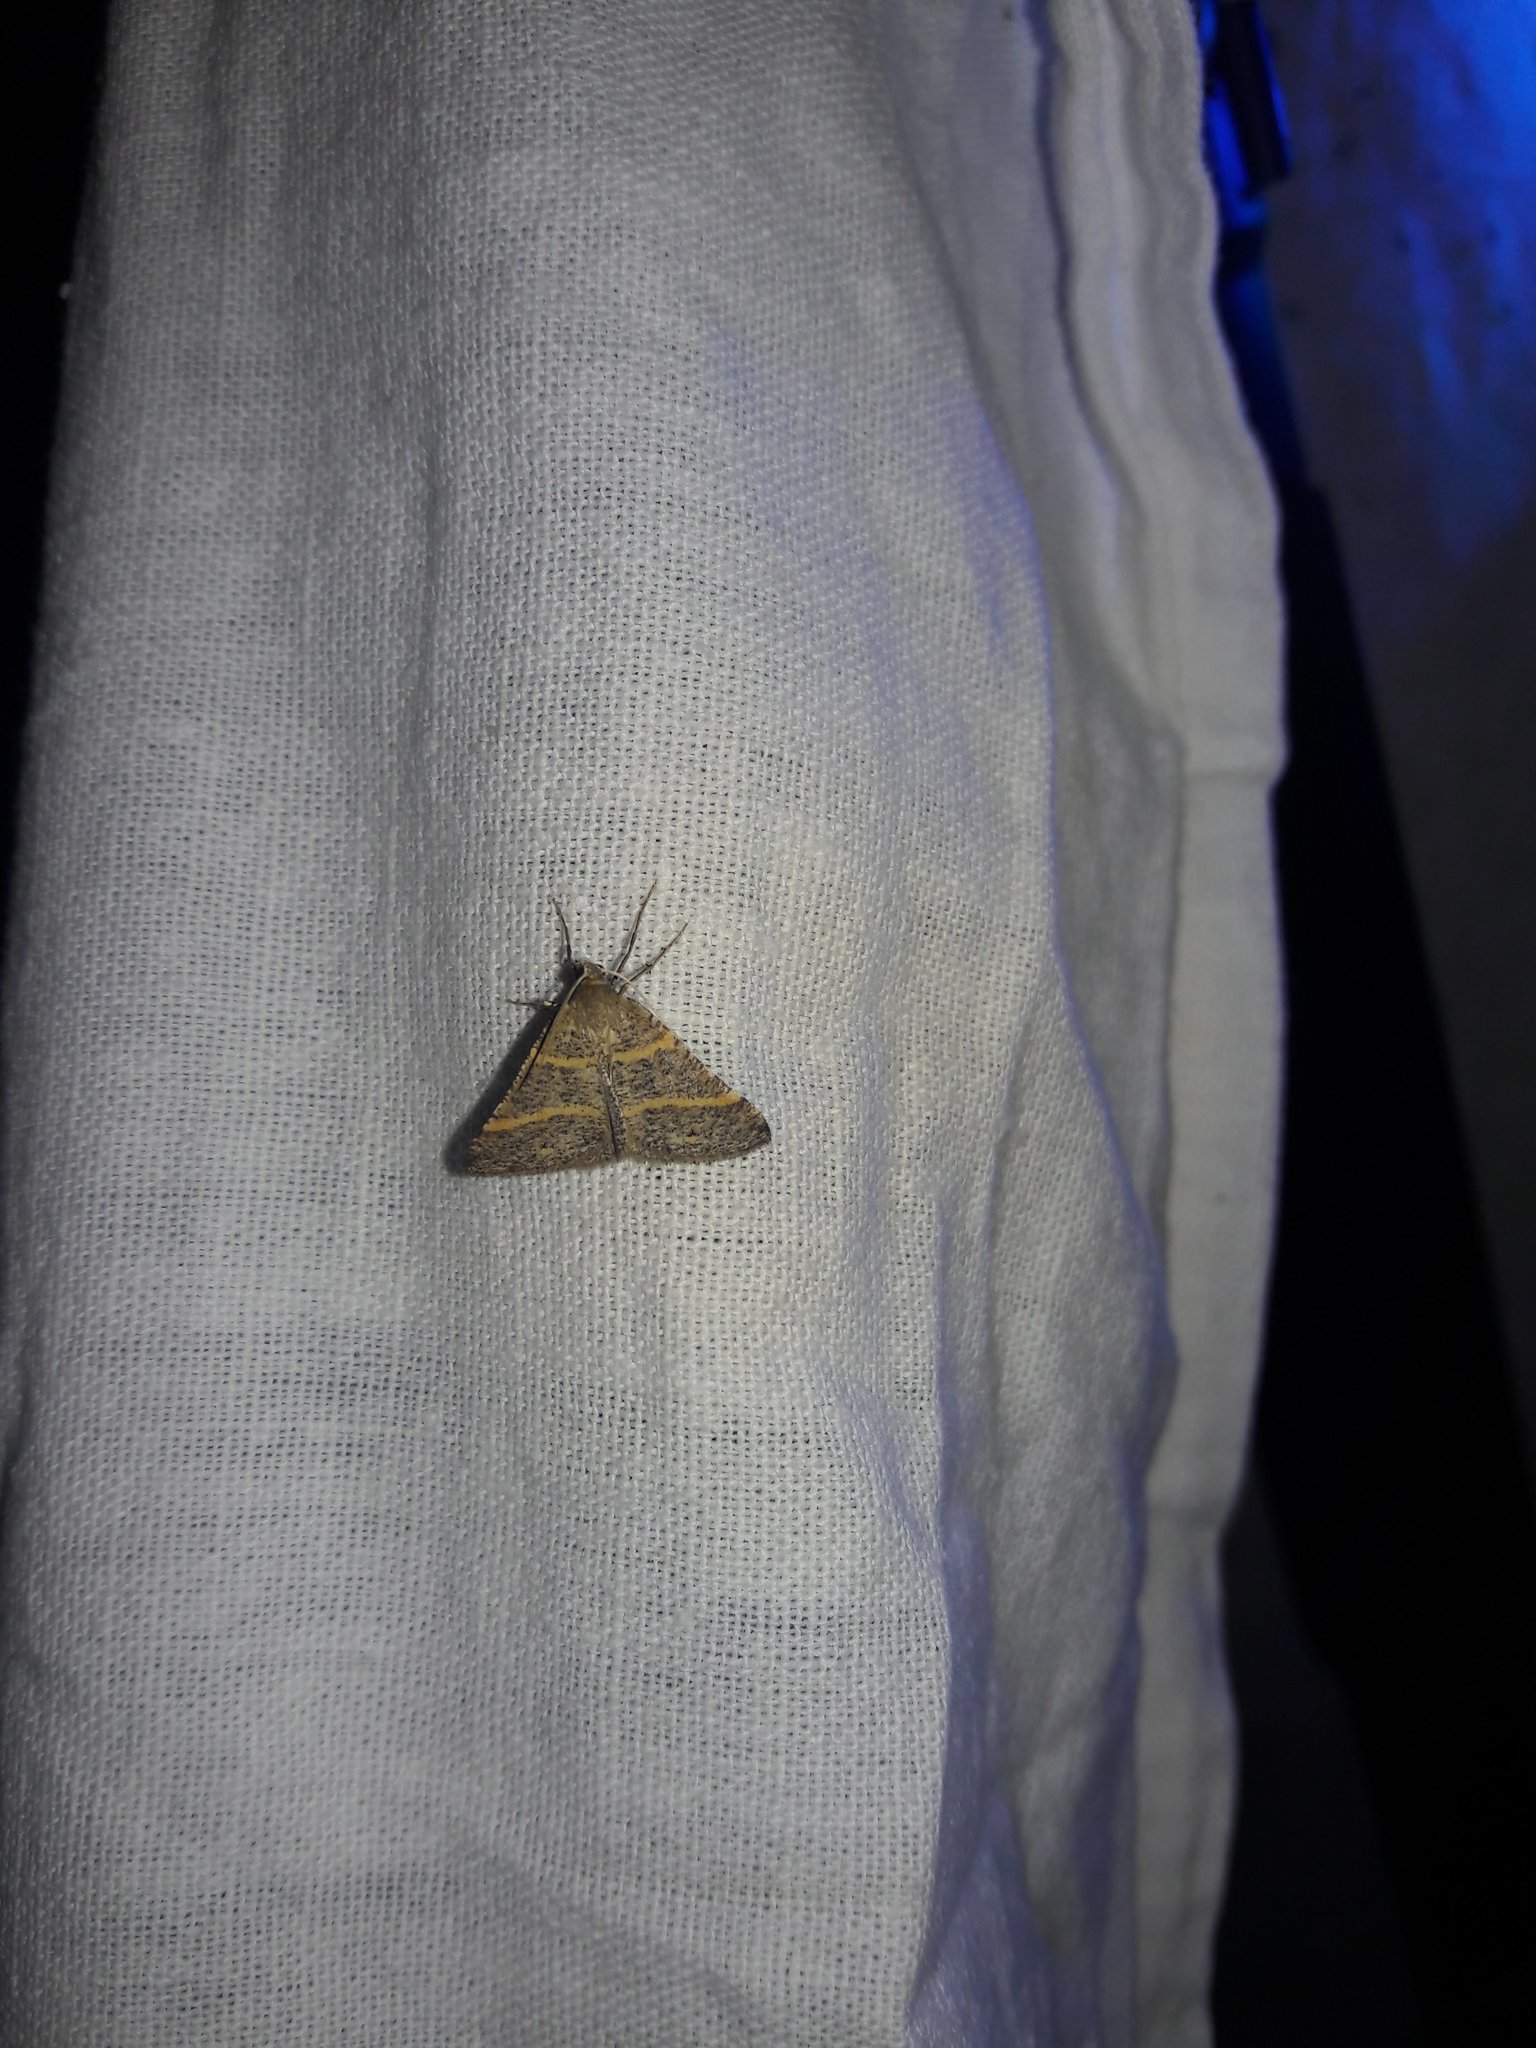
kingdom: Animalia
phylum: Arthropoda
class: Insecta
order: Lepidoptera
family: Pterophoridae
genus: Pterophorus
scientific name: Pterophorus Petrophora narbonea
